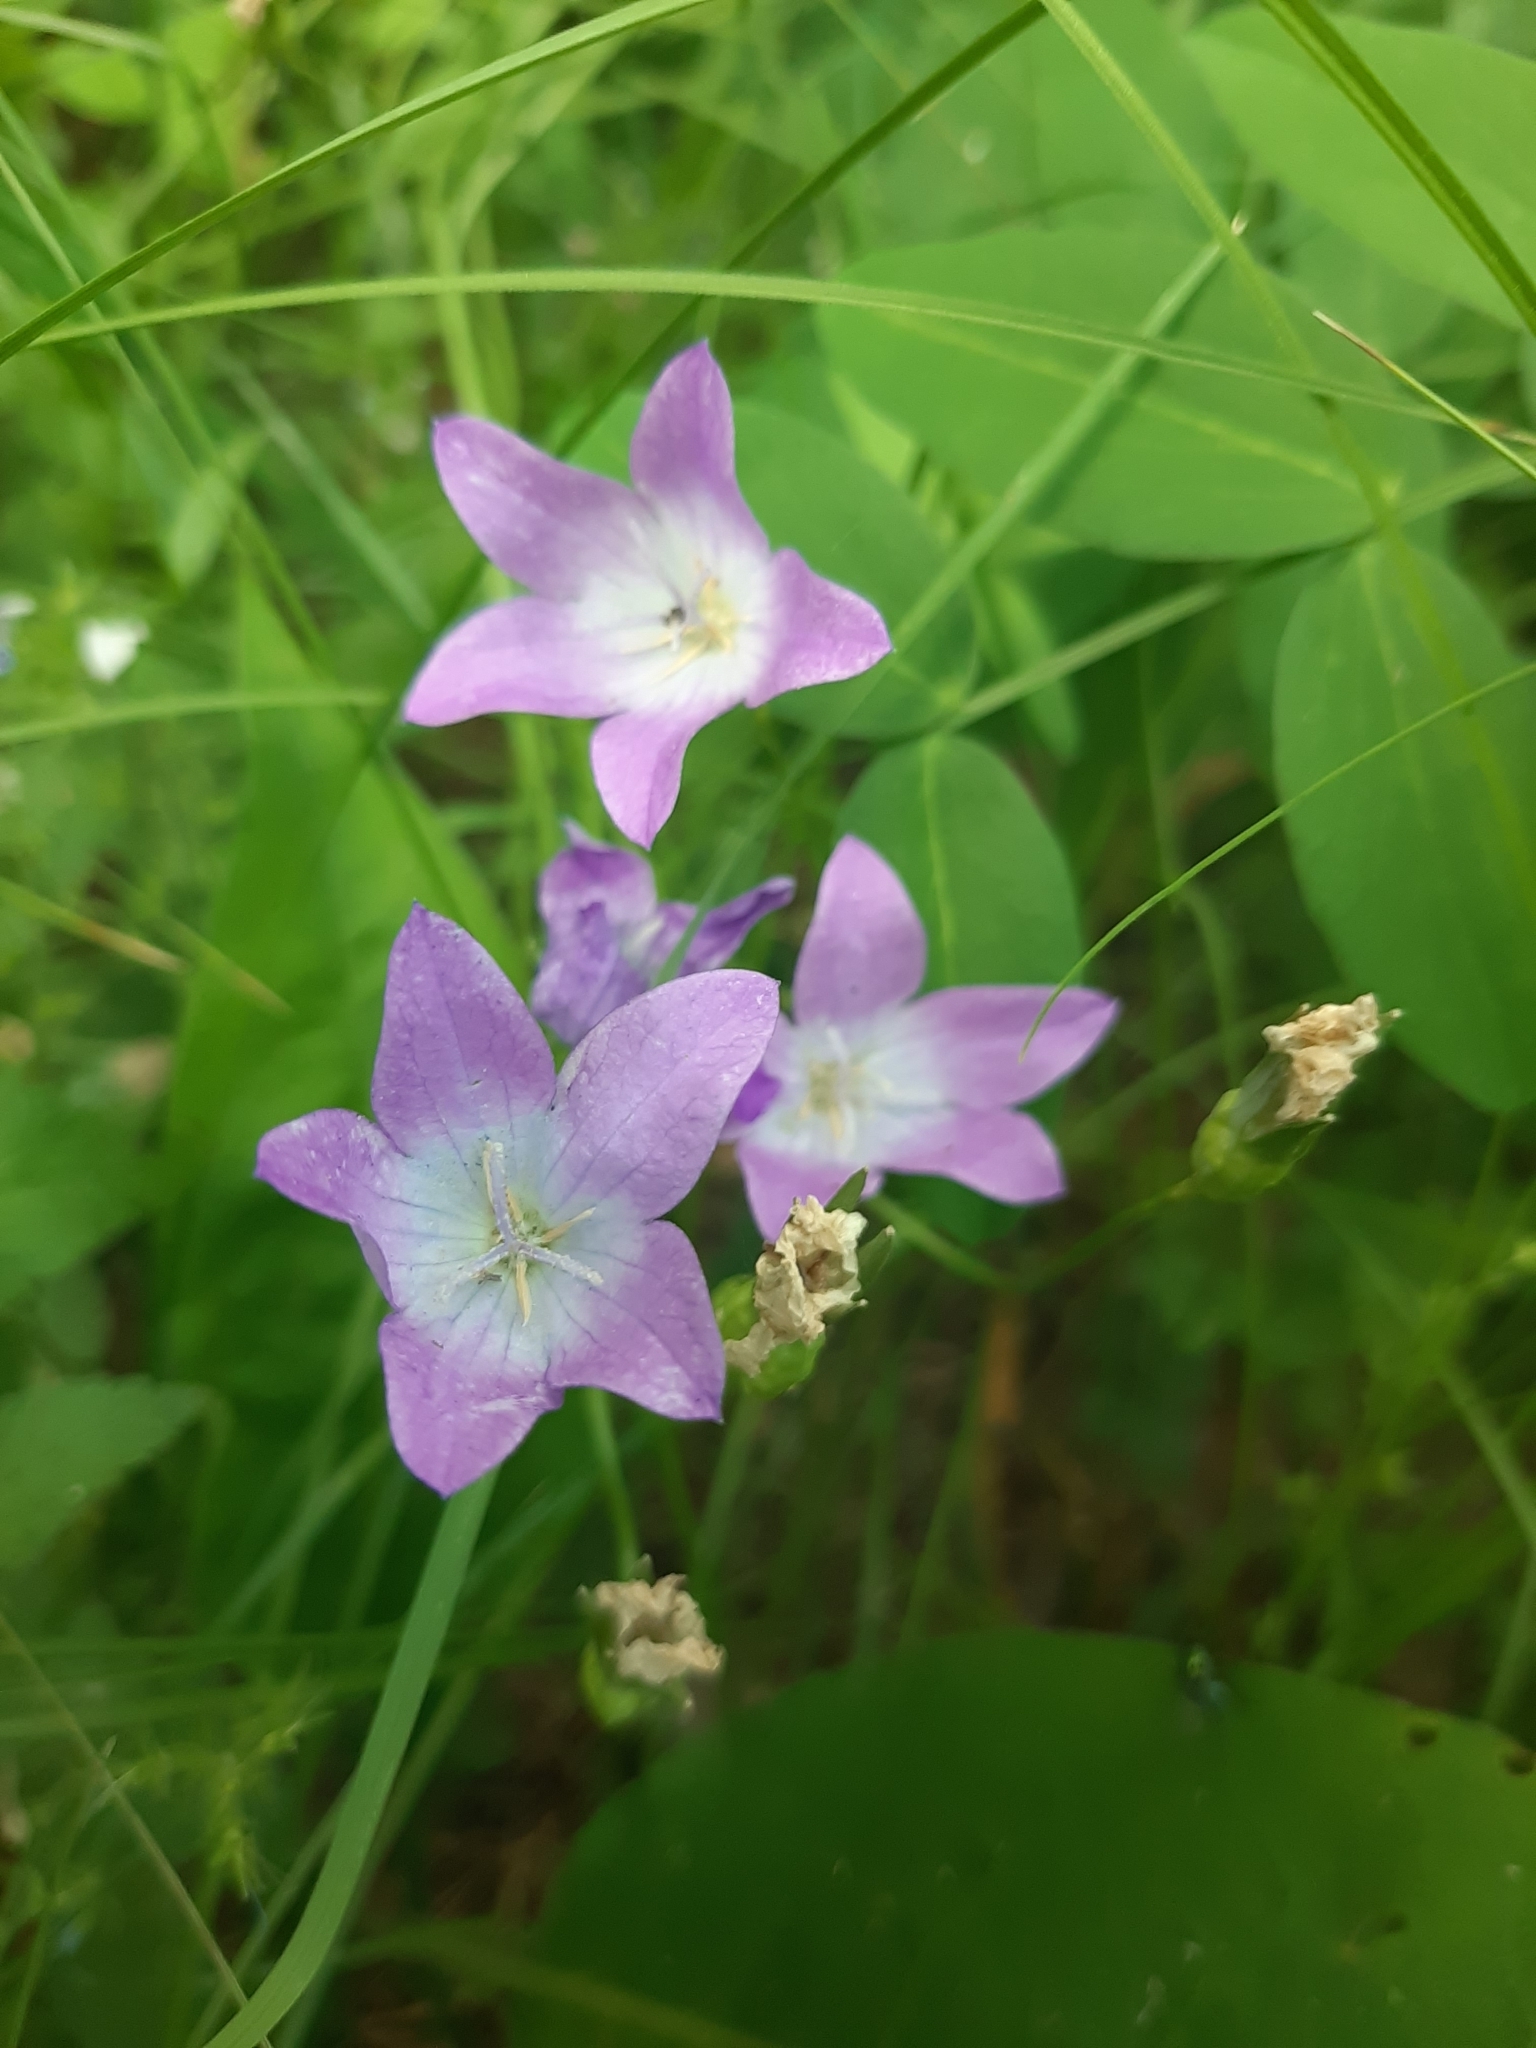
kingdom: Plantae
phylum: Tracheophyta
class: Magnoliopsida
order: Asterales
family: Campanulaceae
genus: Campanula
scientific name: Campanula stevenii
